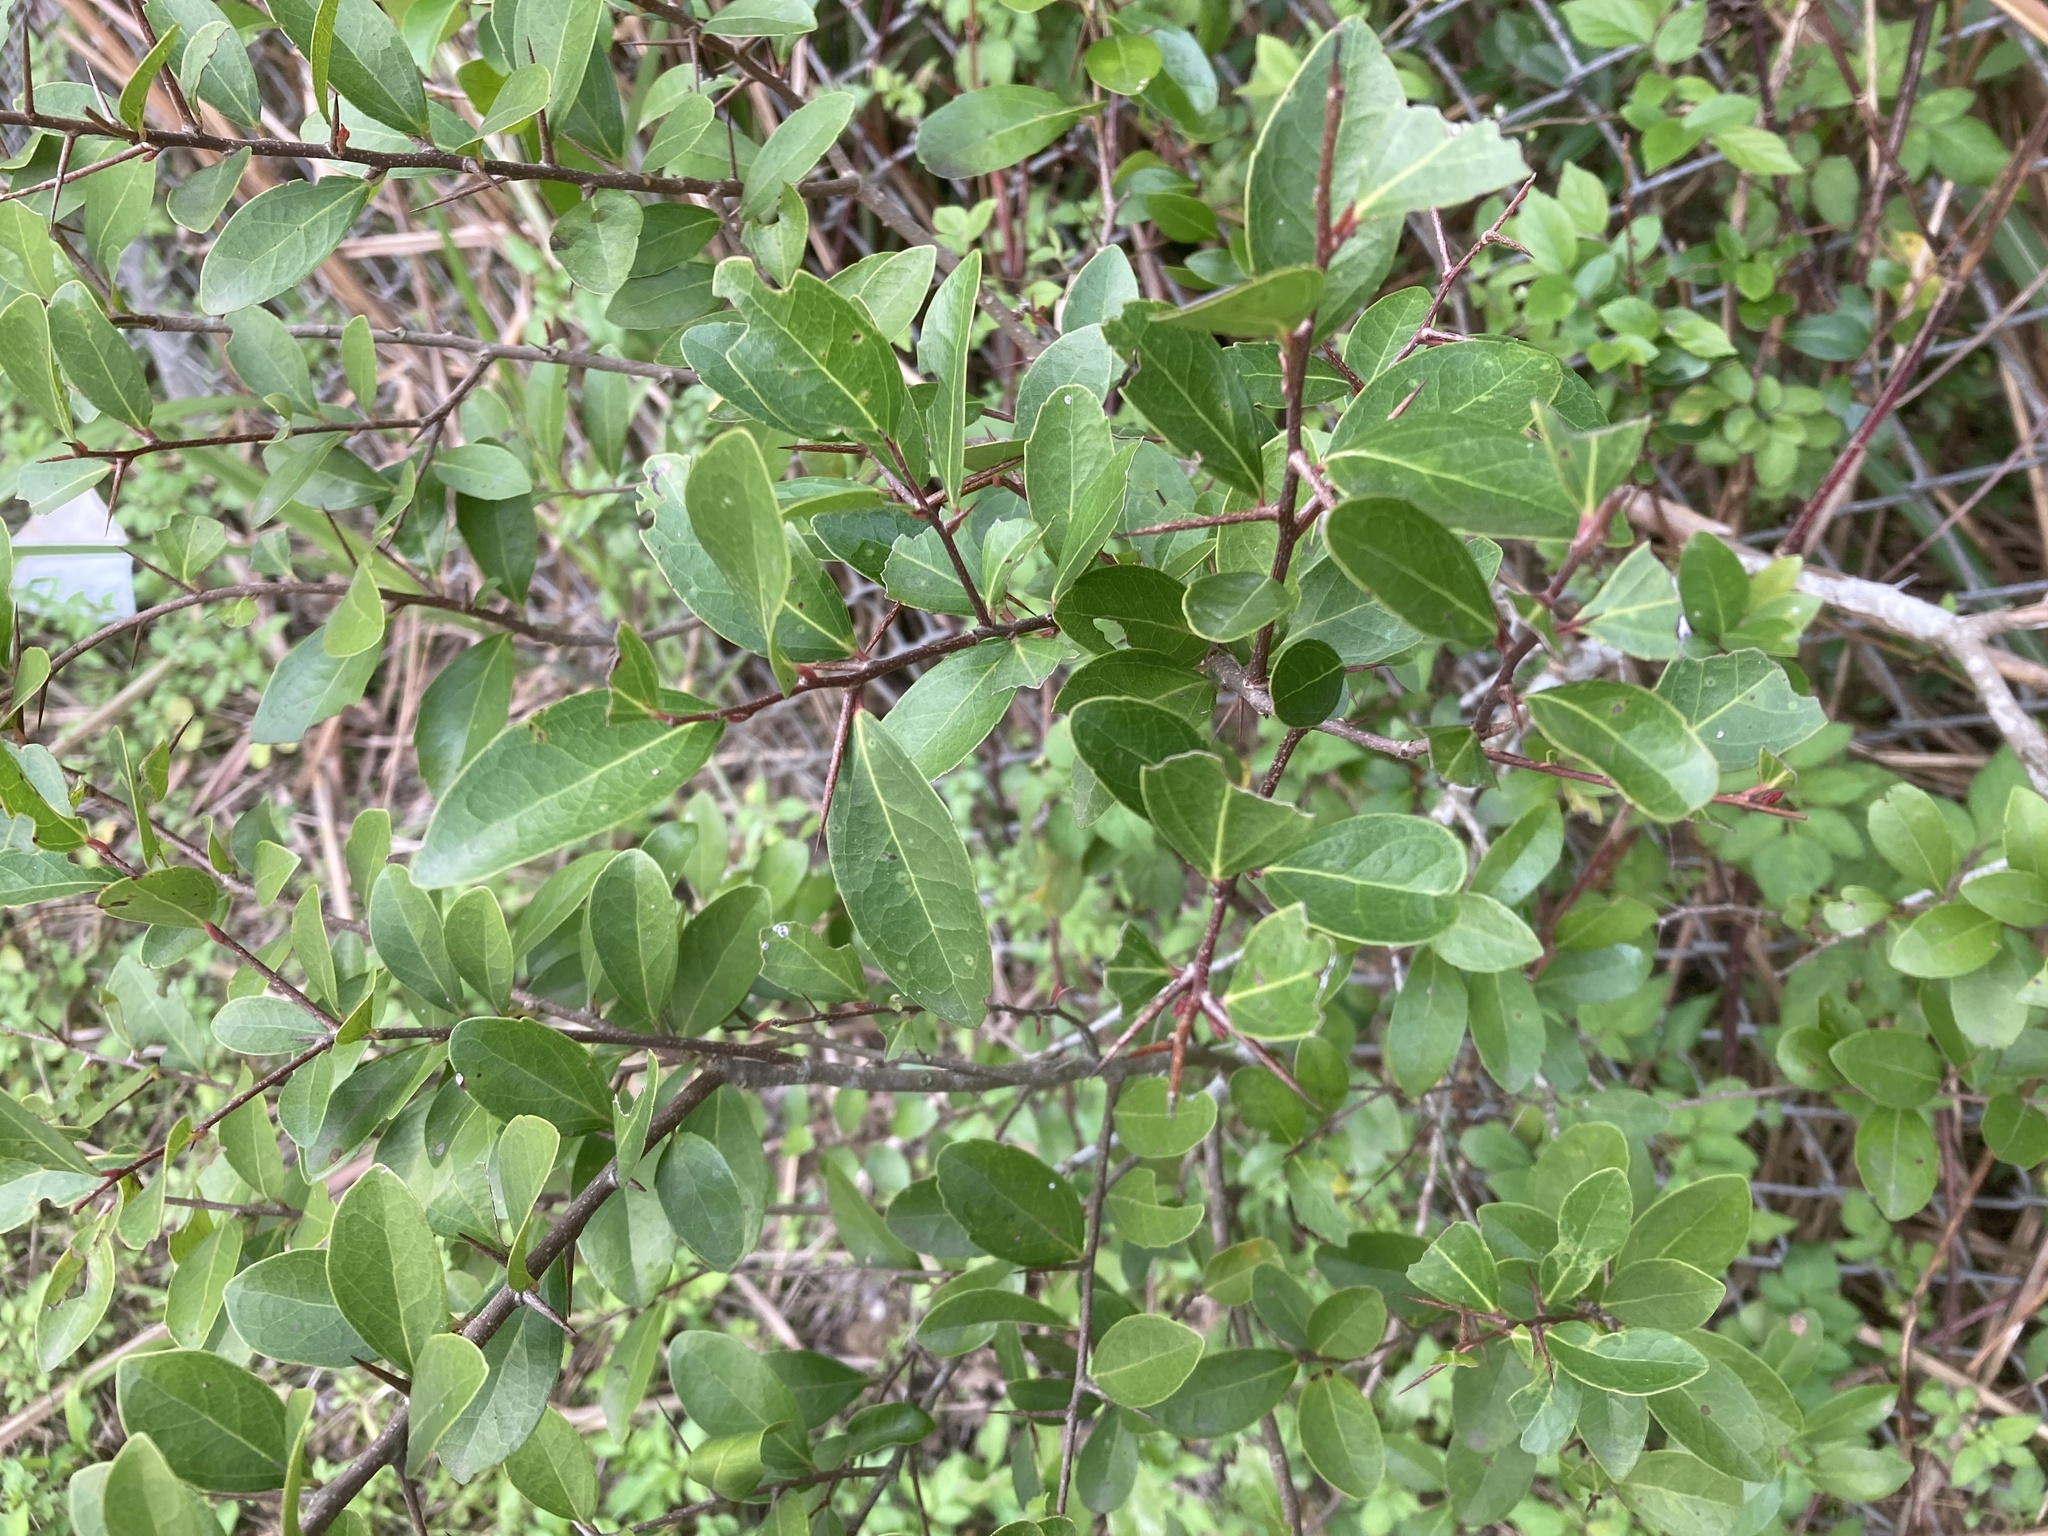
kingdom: Plantae
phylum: Tracheophyta
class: Magnoliopsida
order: Malpighiales
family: Salicaceae
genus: Scolopia
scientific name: Scolopia oldhamii
